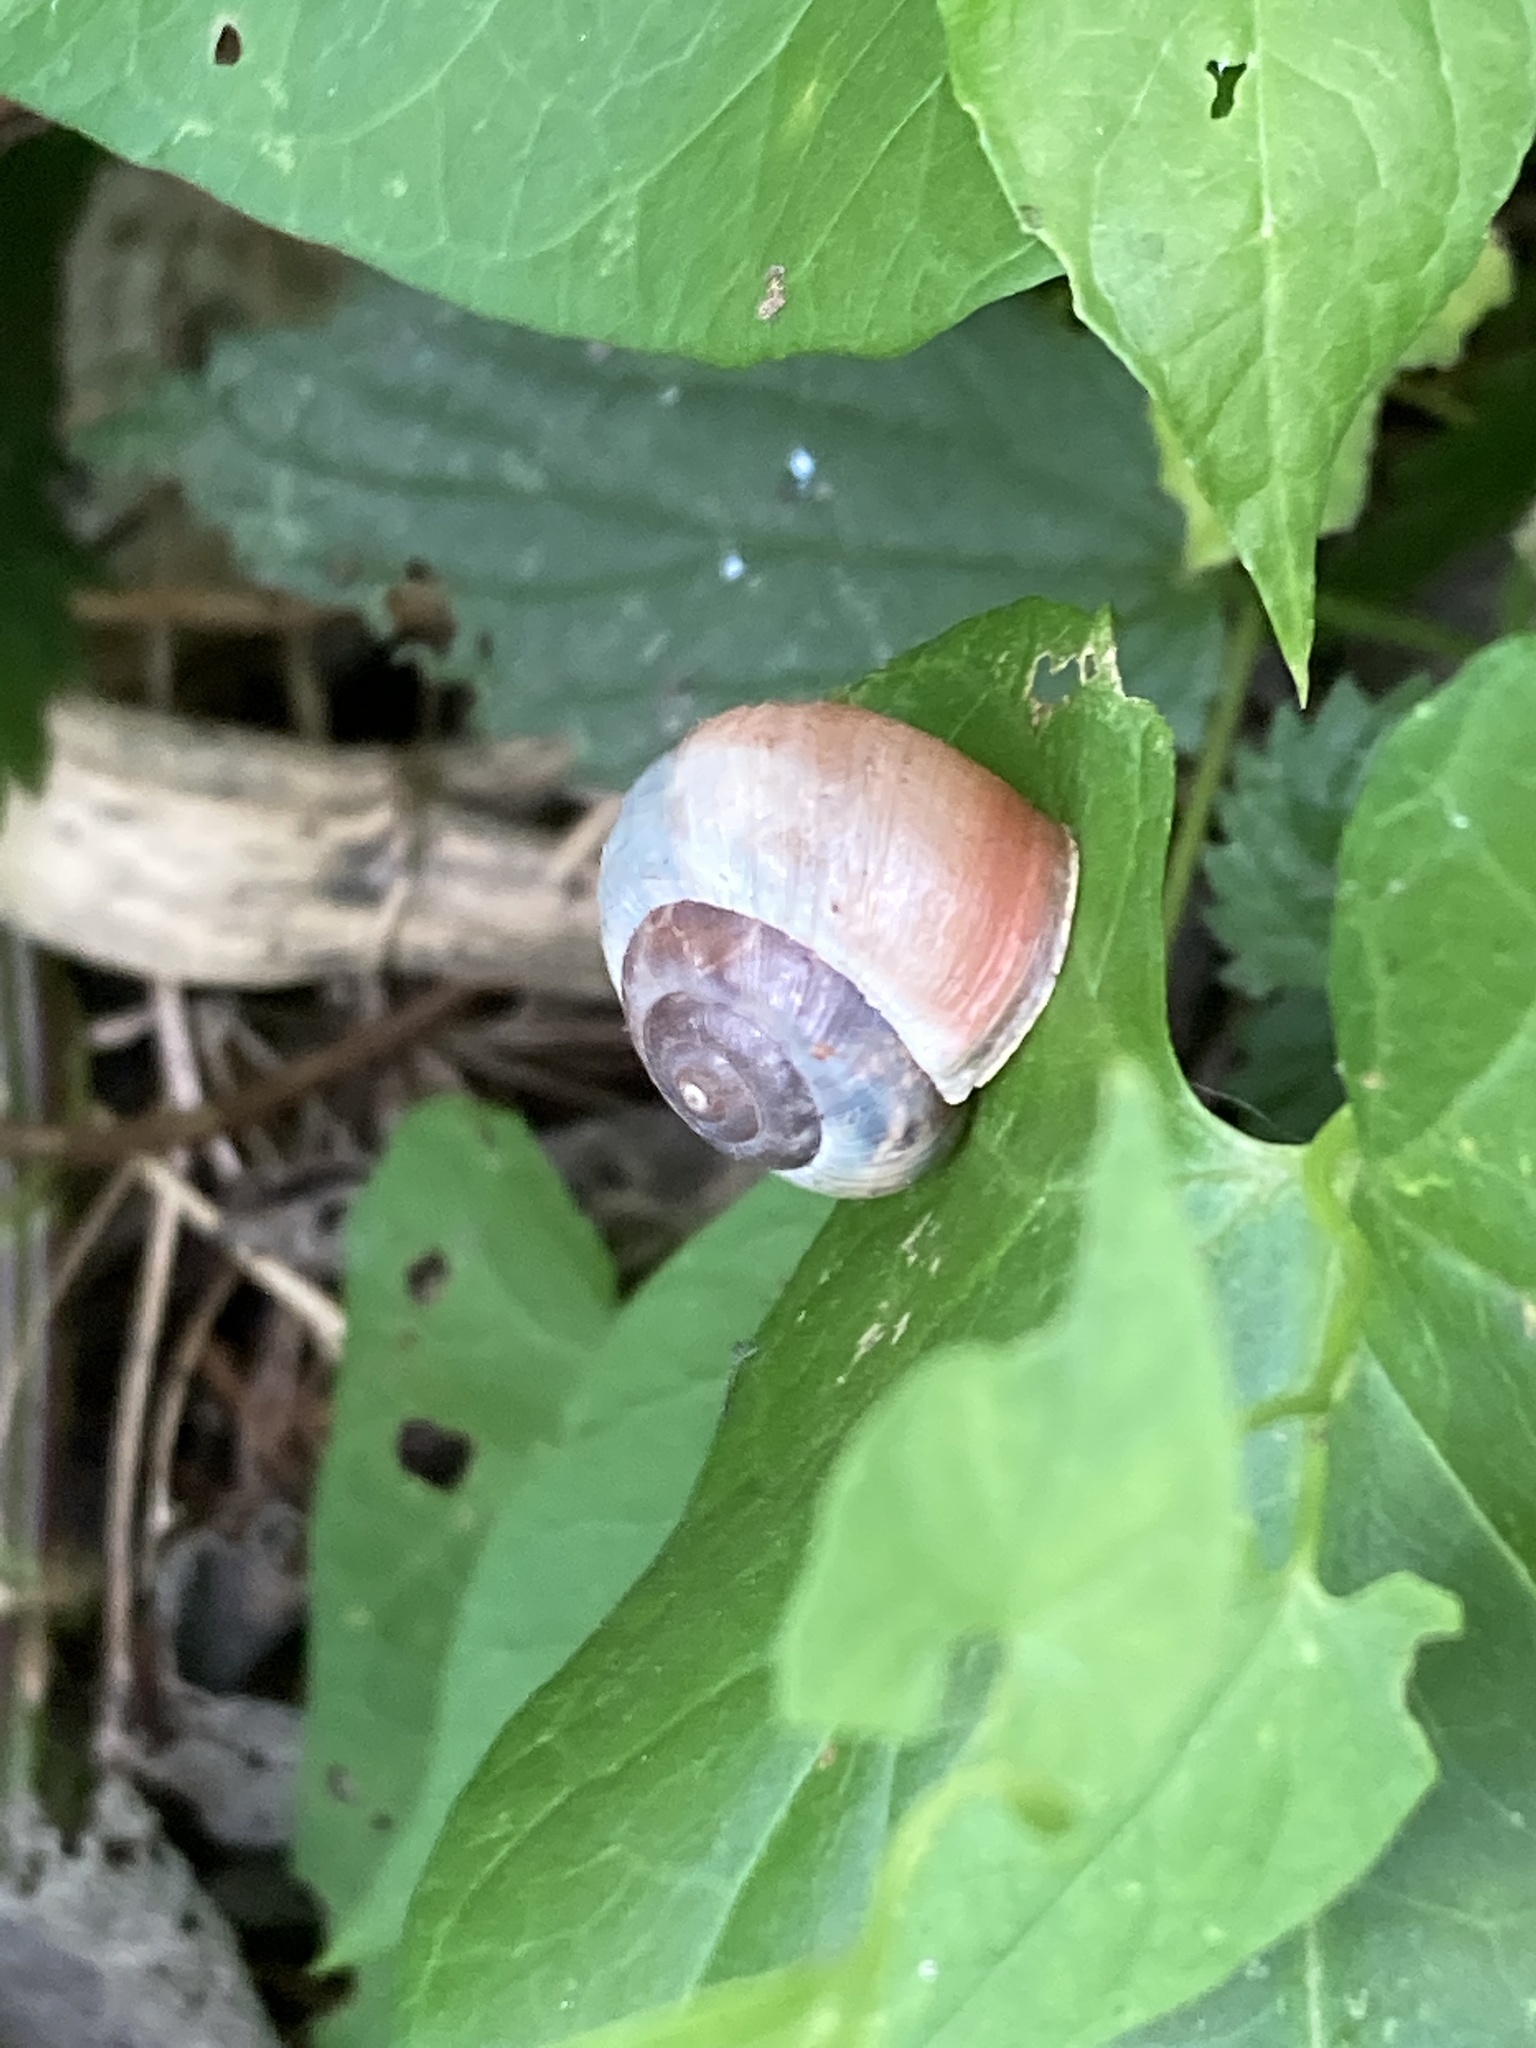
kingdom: Animalia
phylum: Mollusca
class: Gastropoda
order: Stylommatophora
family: Hygromiidae
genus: Monacha
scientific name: Monacha cantiana
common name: Kentish snail
